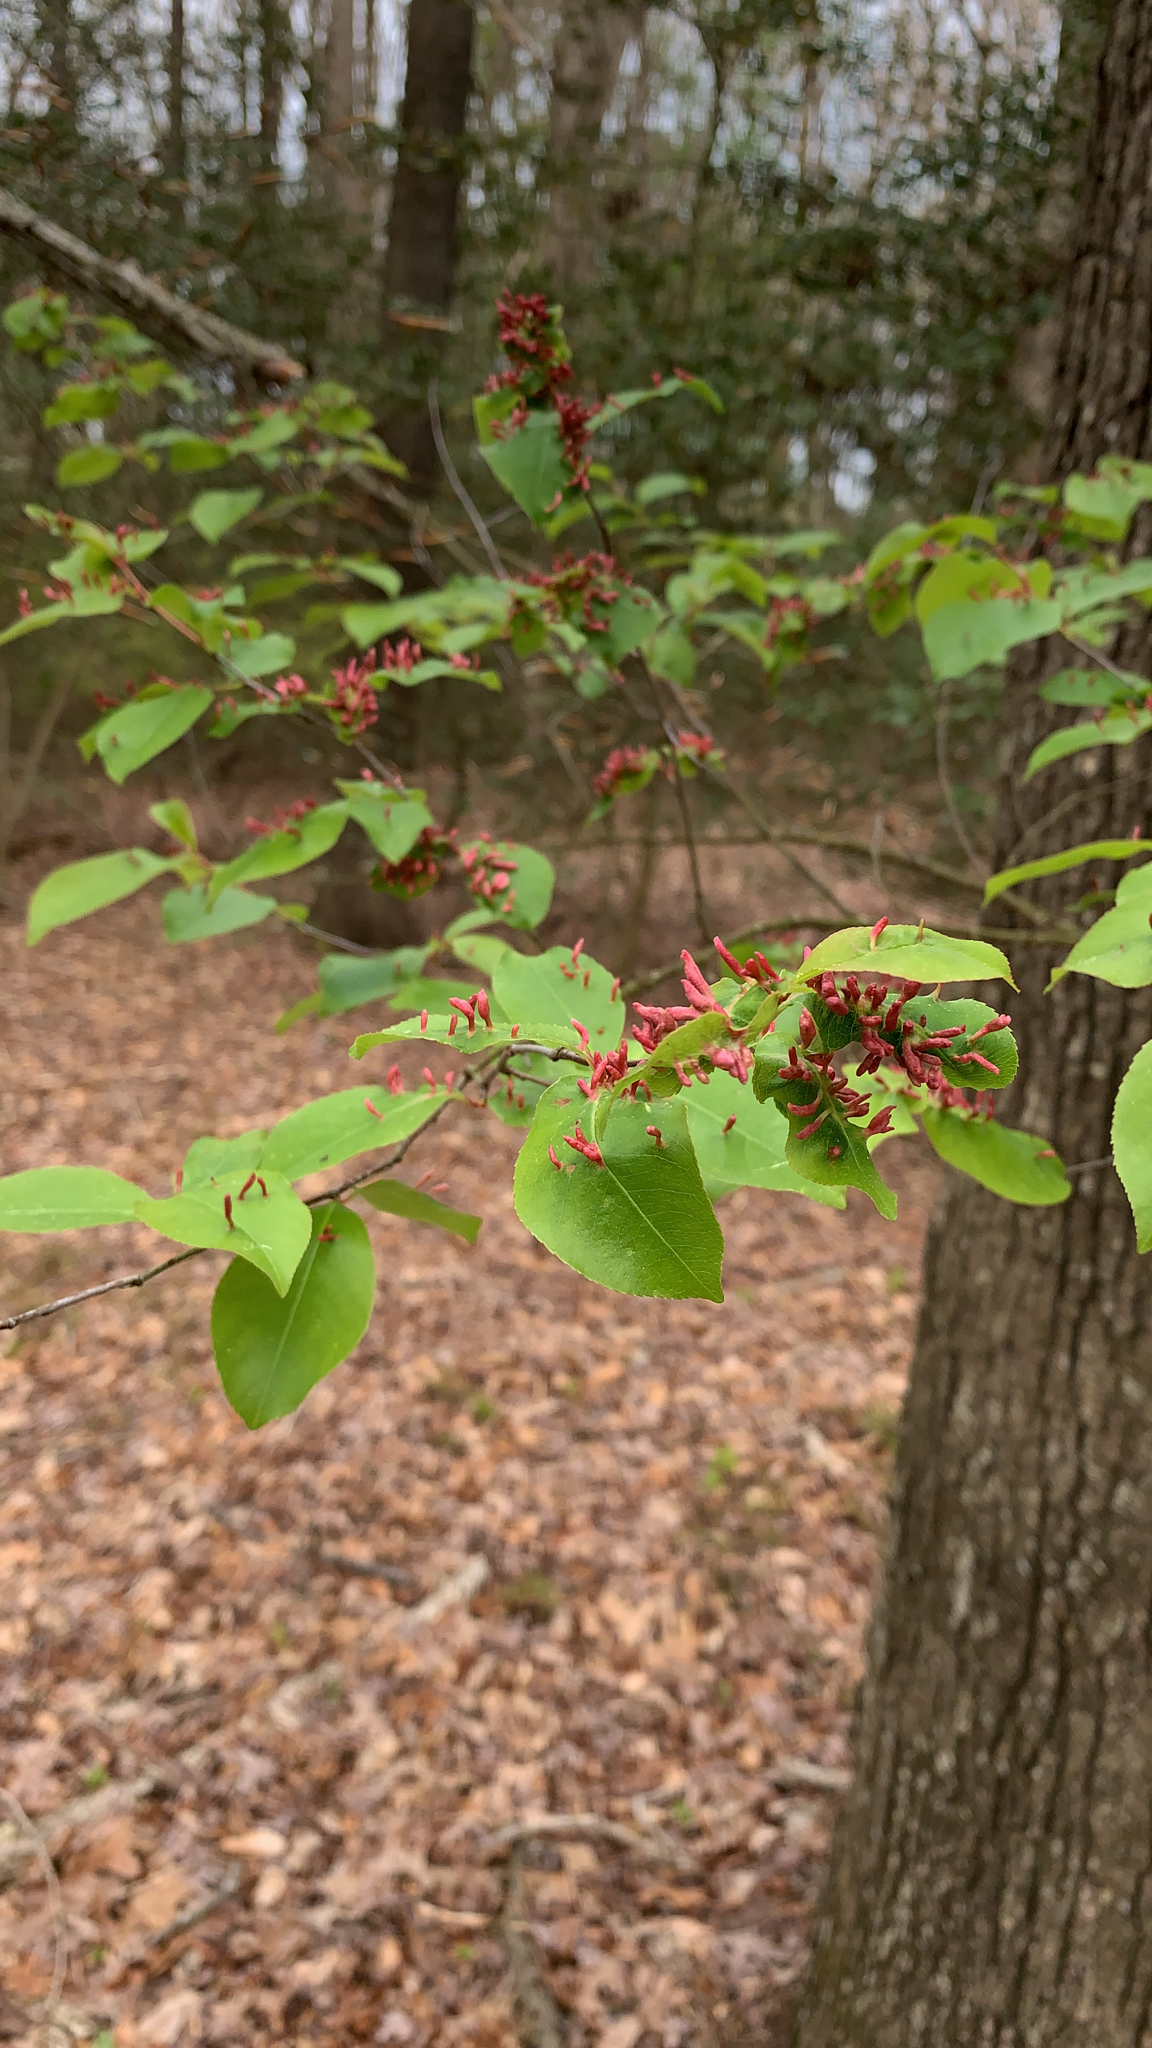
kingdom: Animalia
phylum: Arthropoda
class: Arachnida
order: Trombidiformes
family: Eriophyidae
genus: Eriophyes
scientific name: Eriophyes
